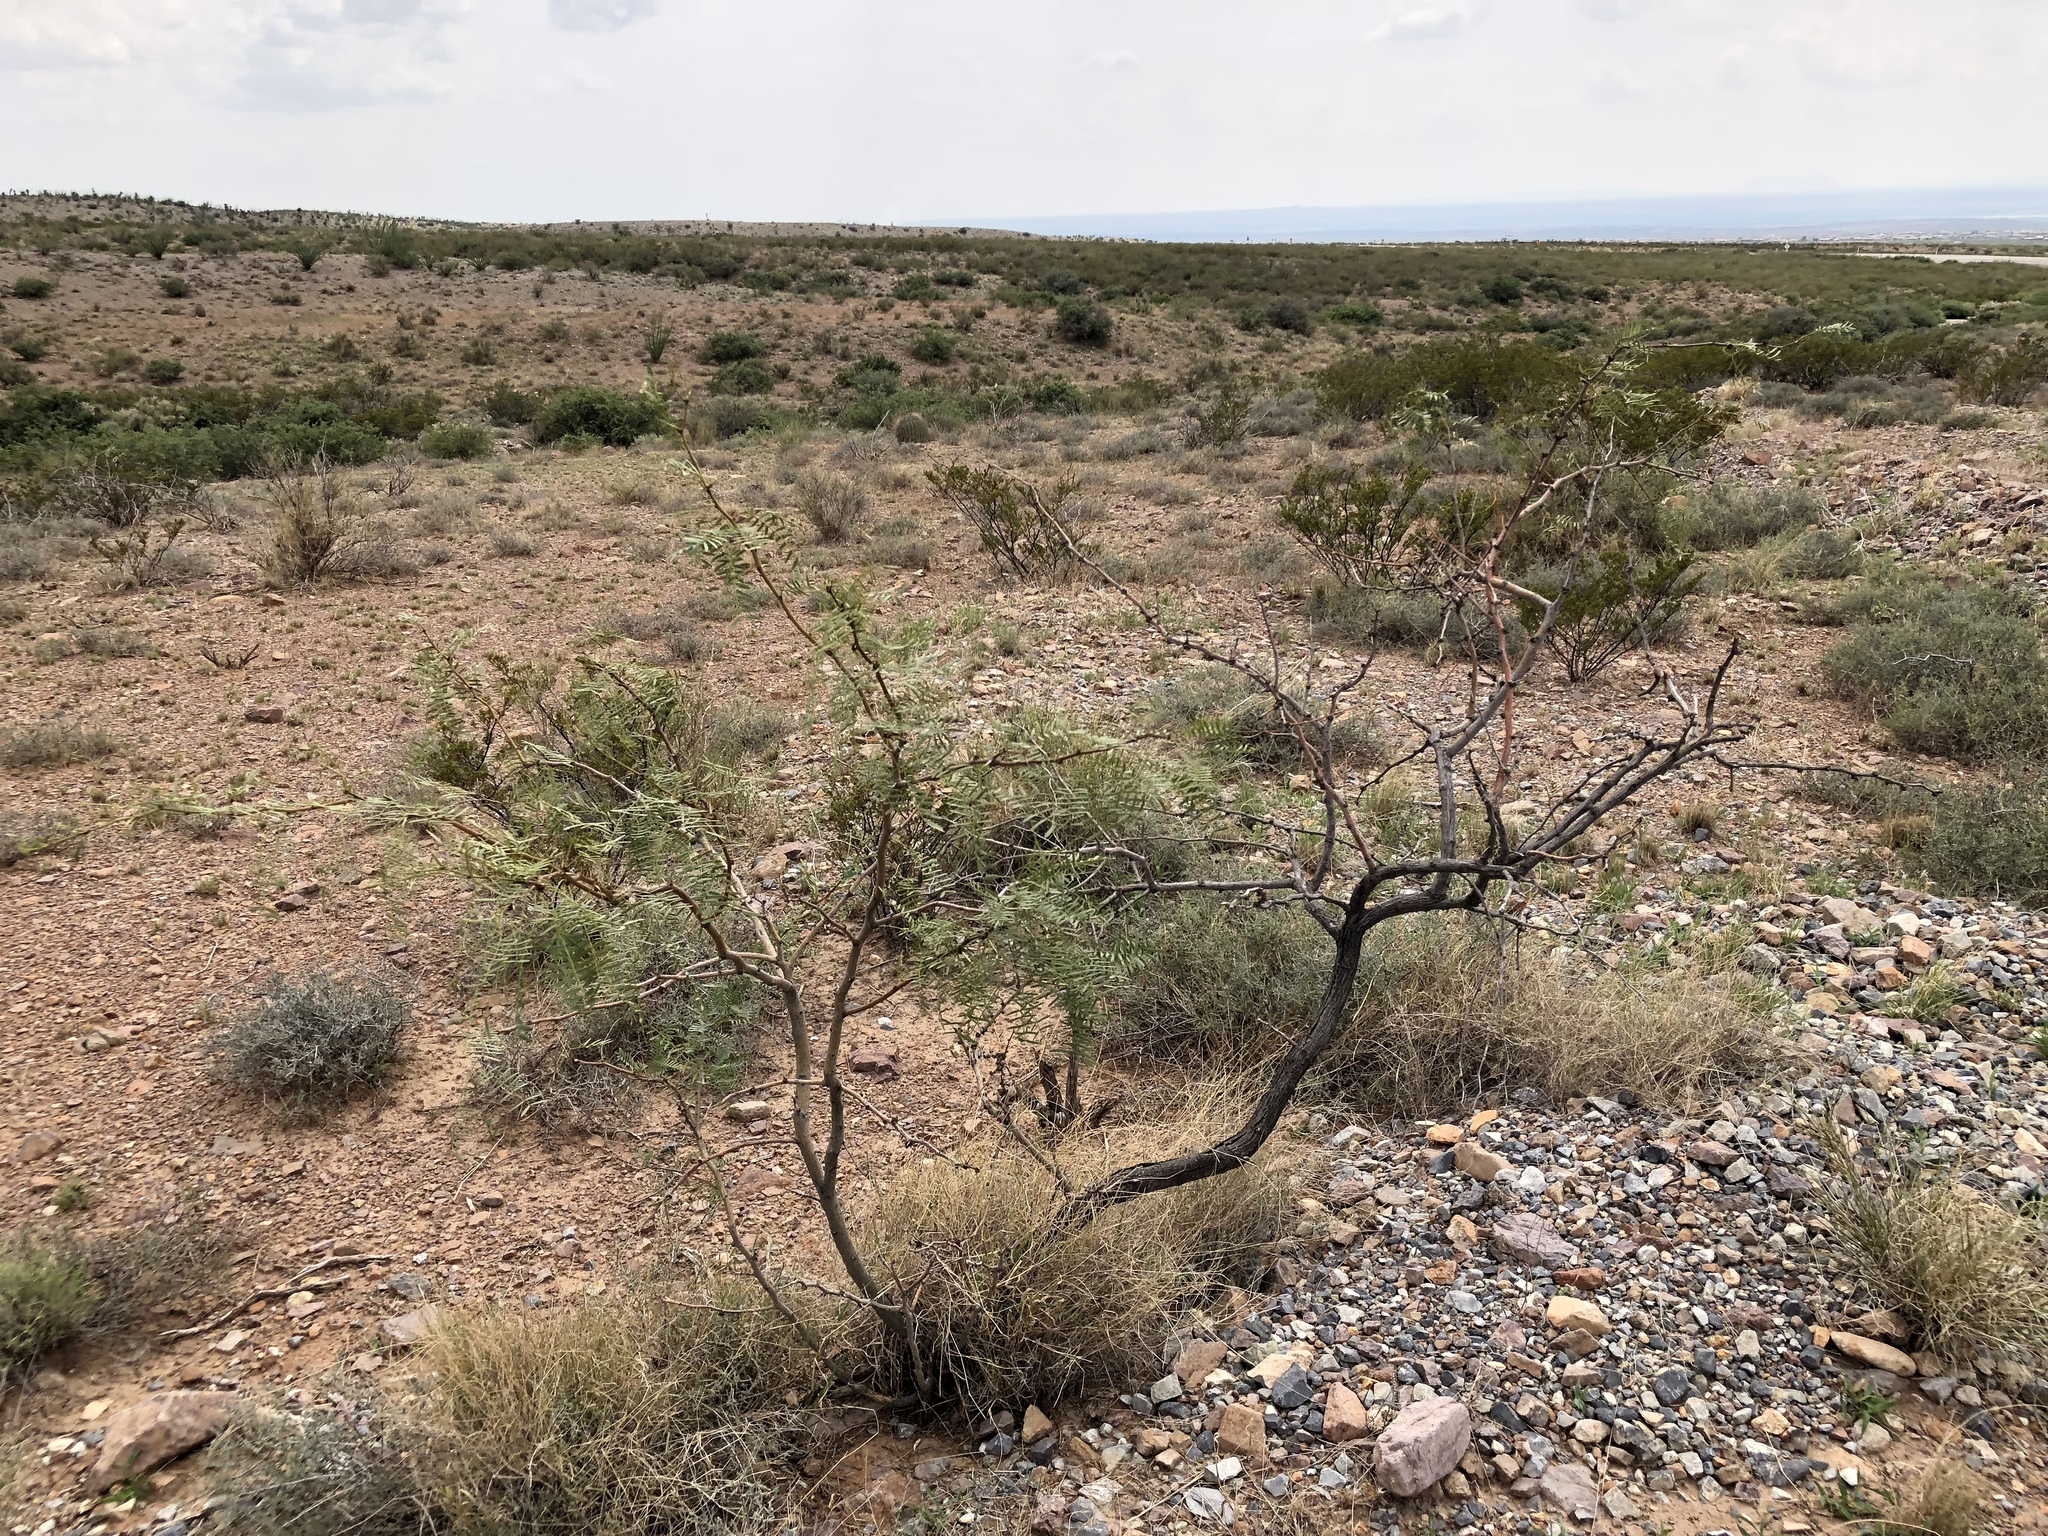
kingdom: Plantae
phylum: Tracheophyta
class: Magnoliopsida
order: Fabales
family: Fabaceae
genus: Prosopis
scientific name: Prosopis glandulosa
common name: Honey mesquite
